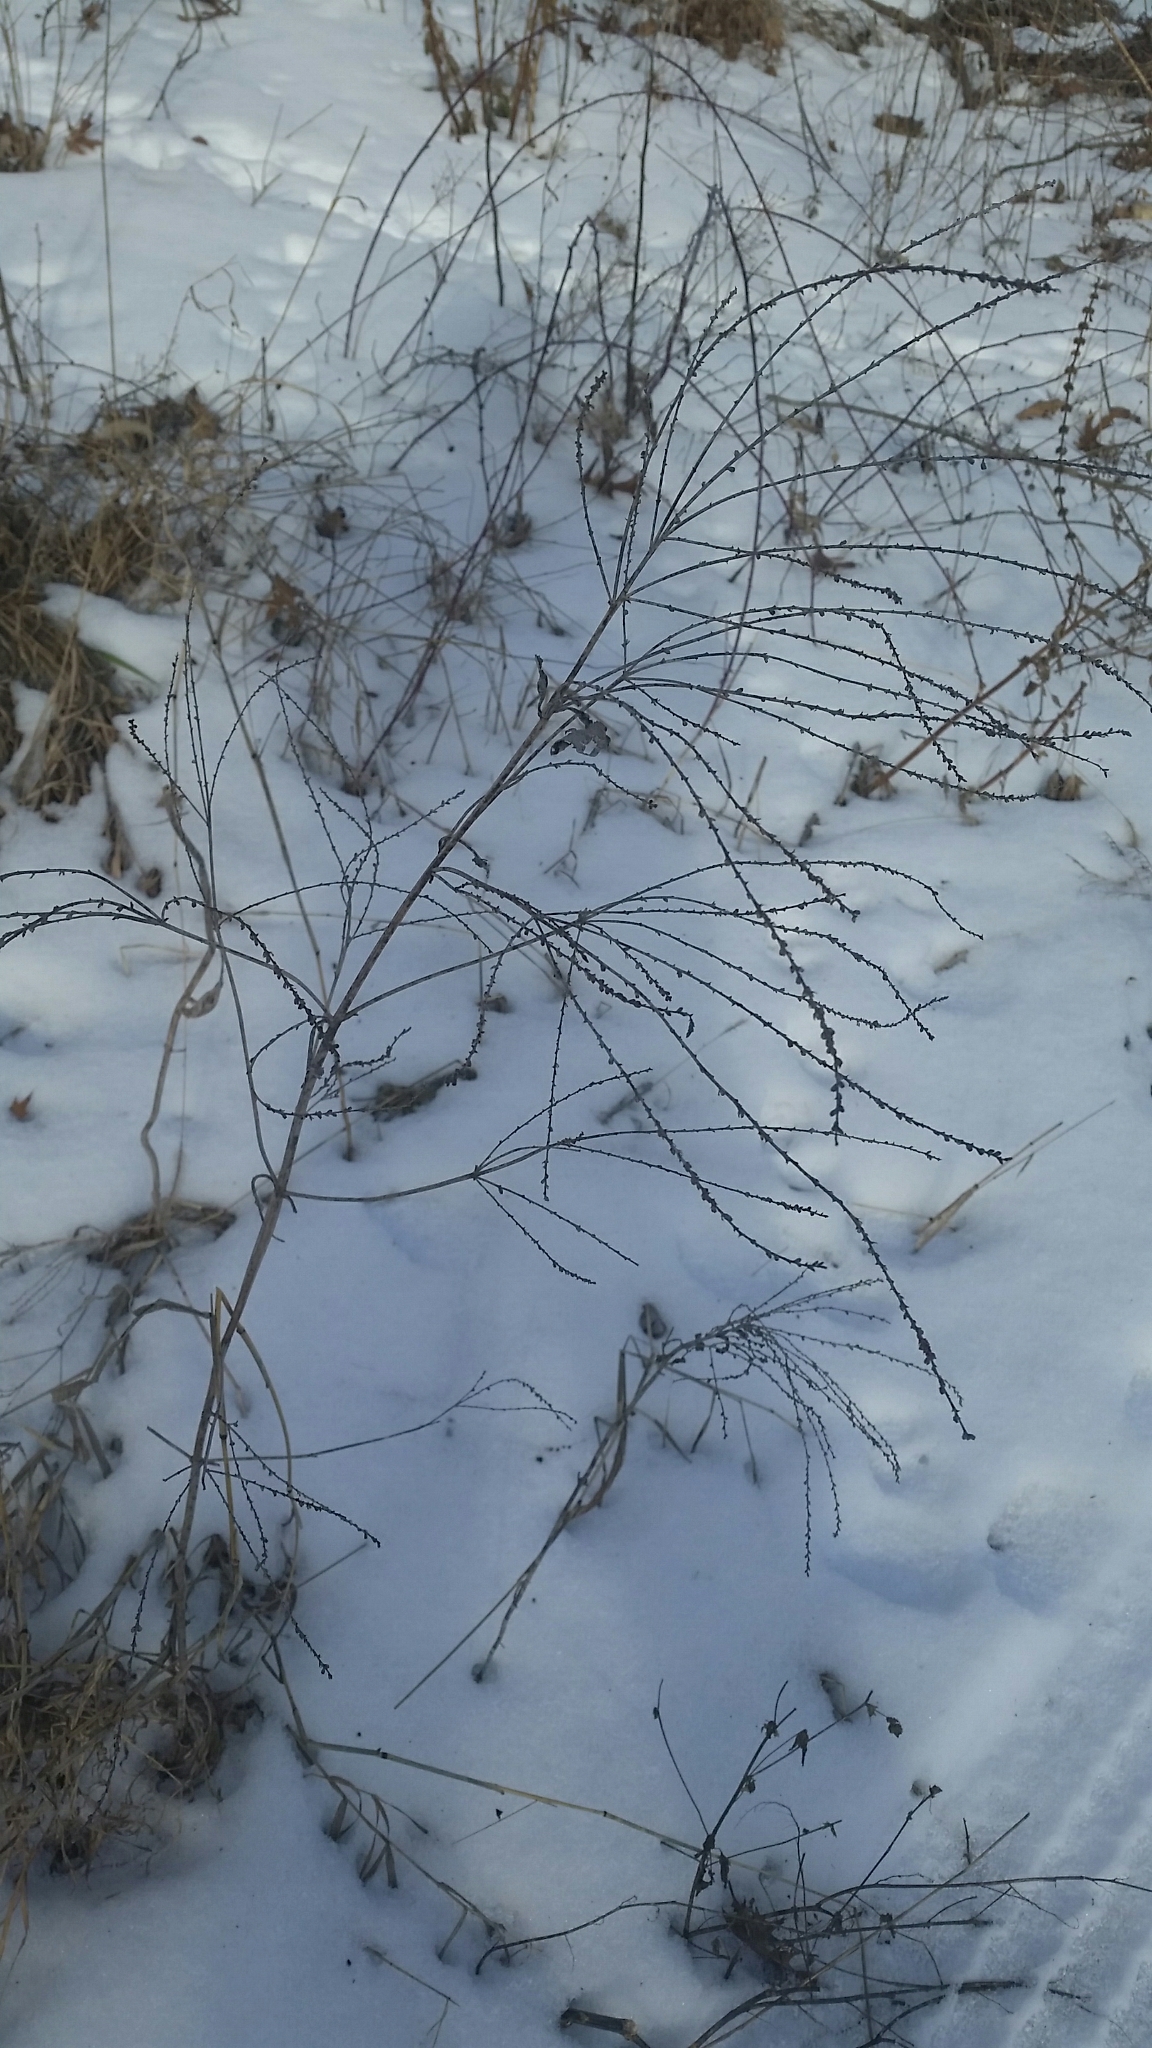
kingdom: Plantae
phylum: Tracheophyta
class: Magnoliopsida
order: Lamiales
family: Verbenaceae
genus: Verbena
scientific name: Verbena urticifolia
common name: Nettle-leaved vervain
